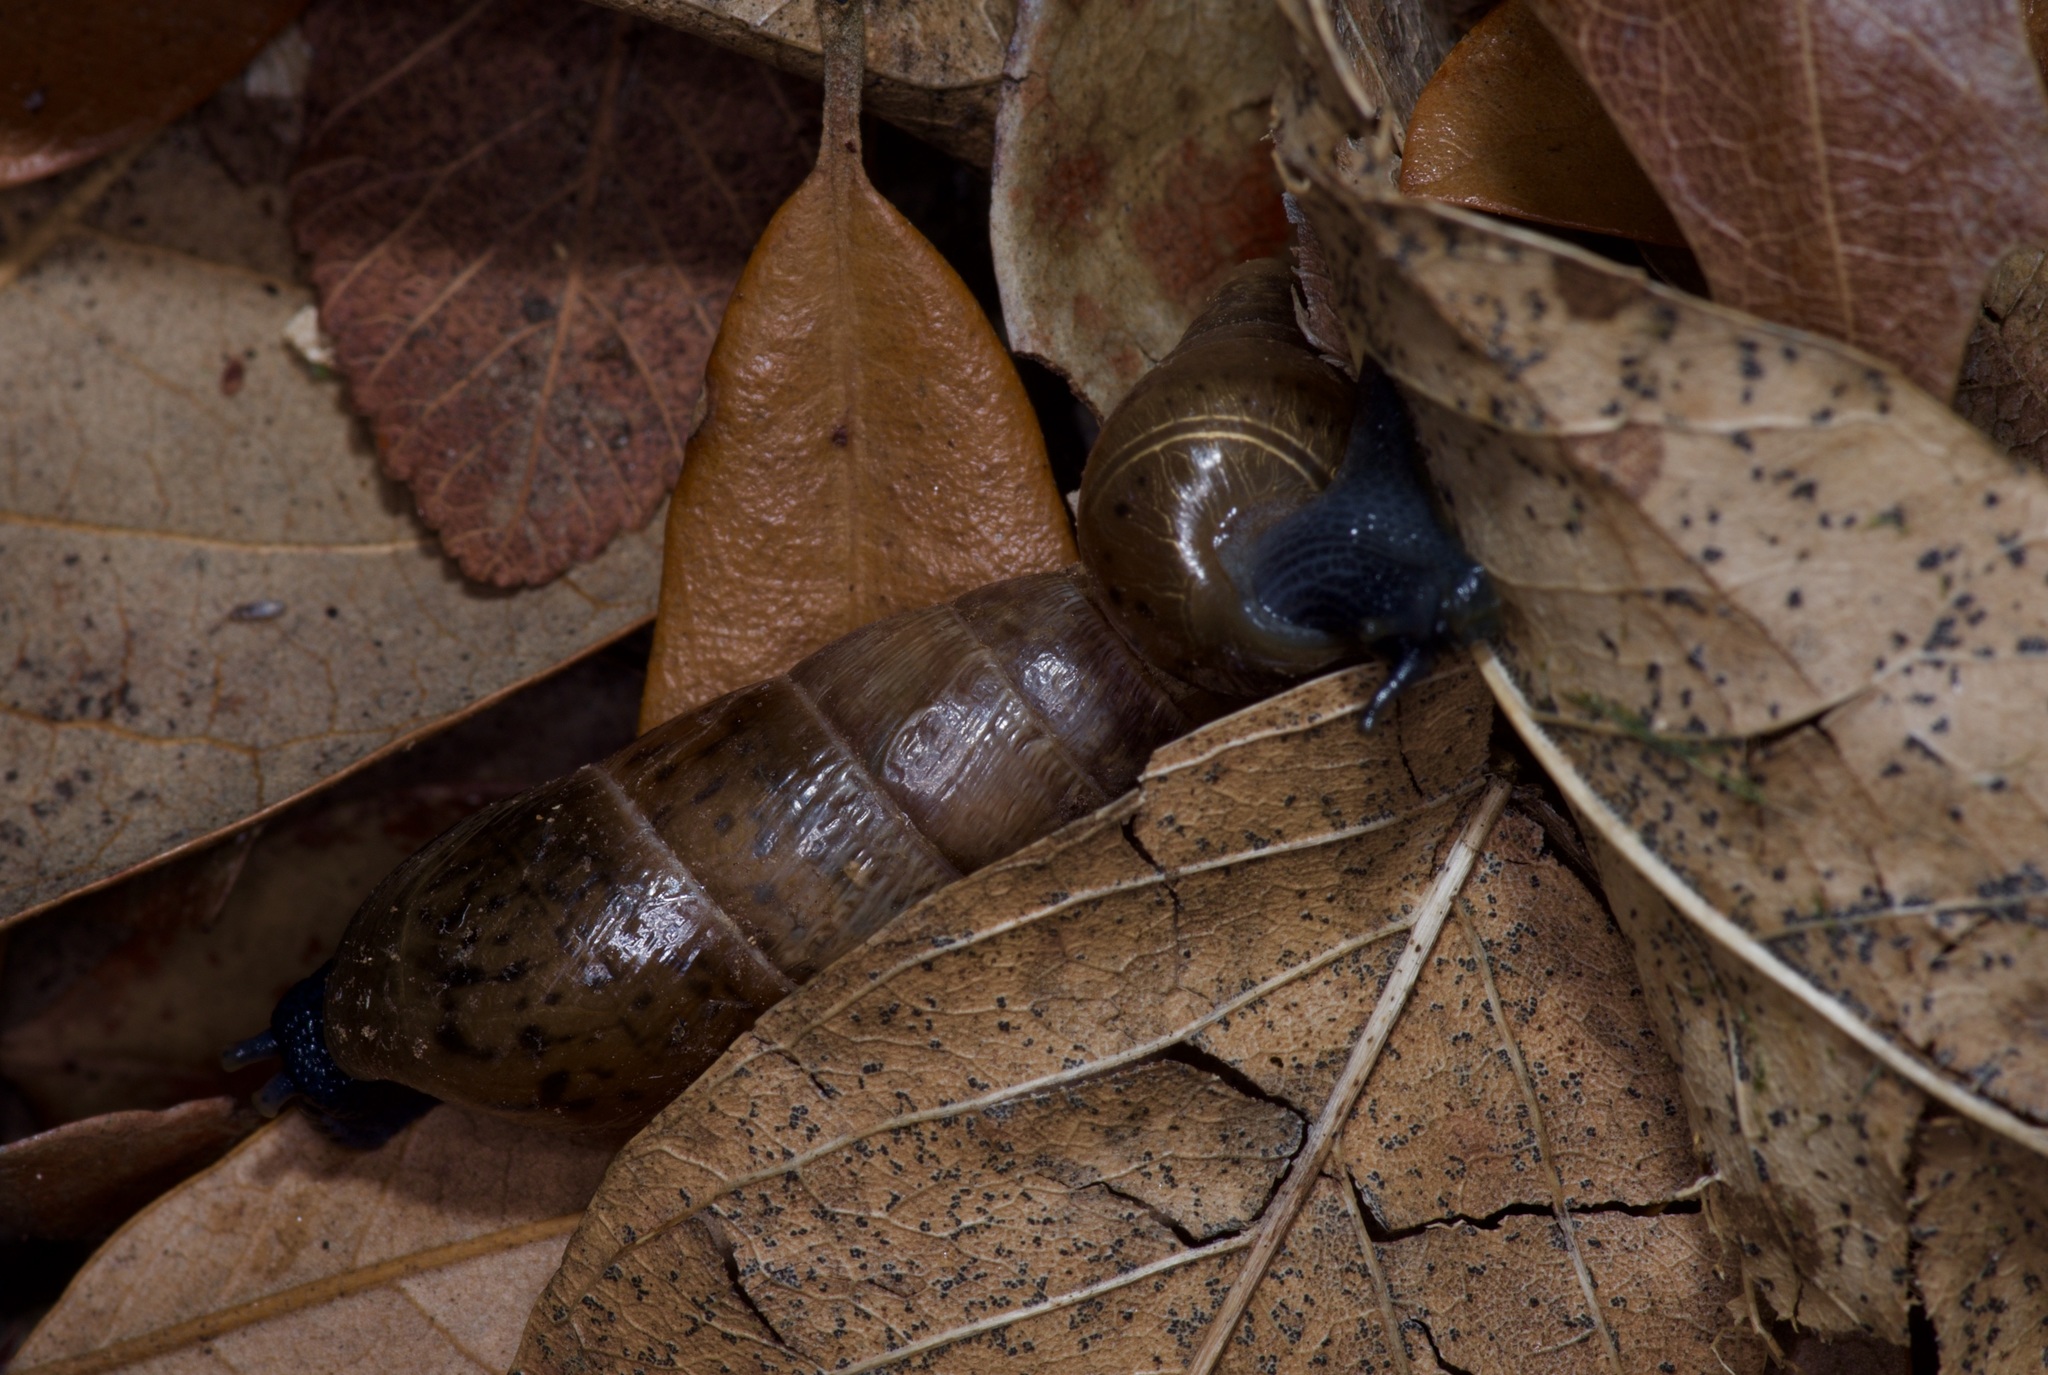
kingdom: Animalia
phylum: Mollusca
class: Gastropoda
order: Stylommatophora
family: Achatinidae
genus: Rumina
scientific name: Rumina decollata
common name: Decollate snail
